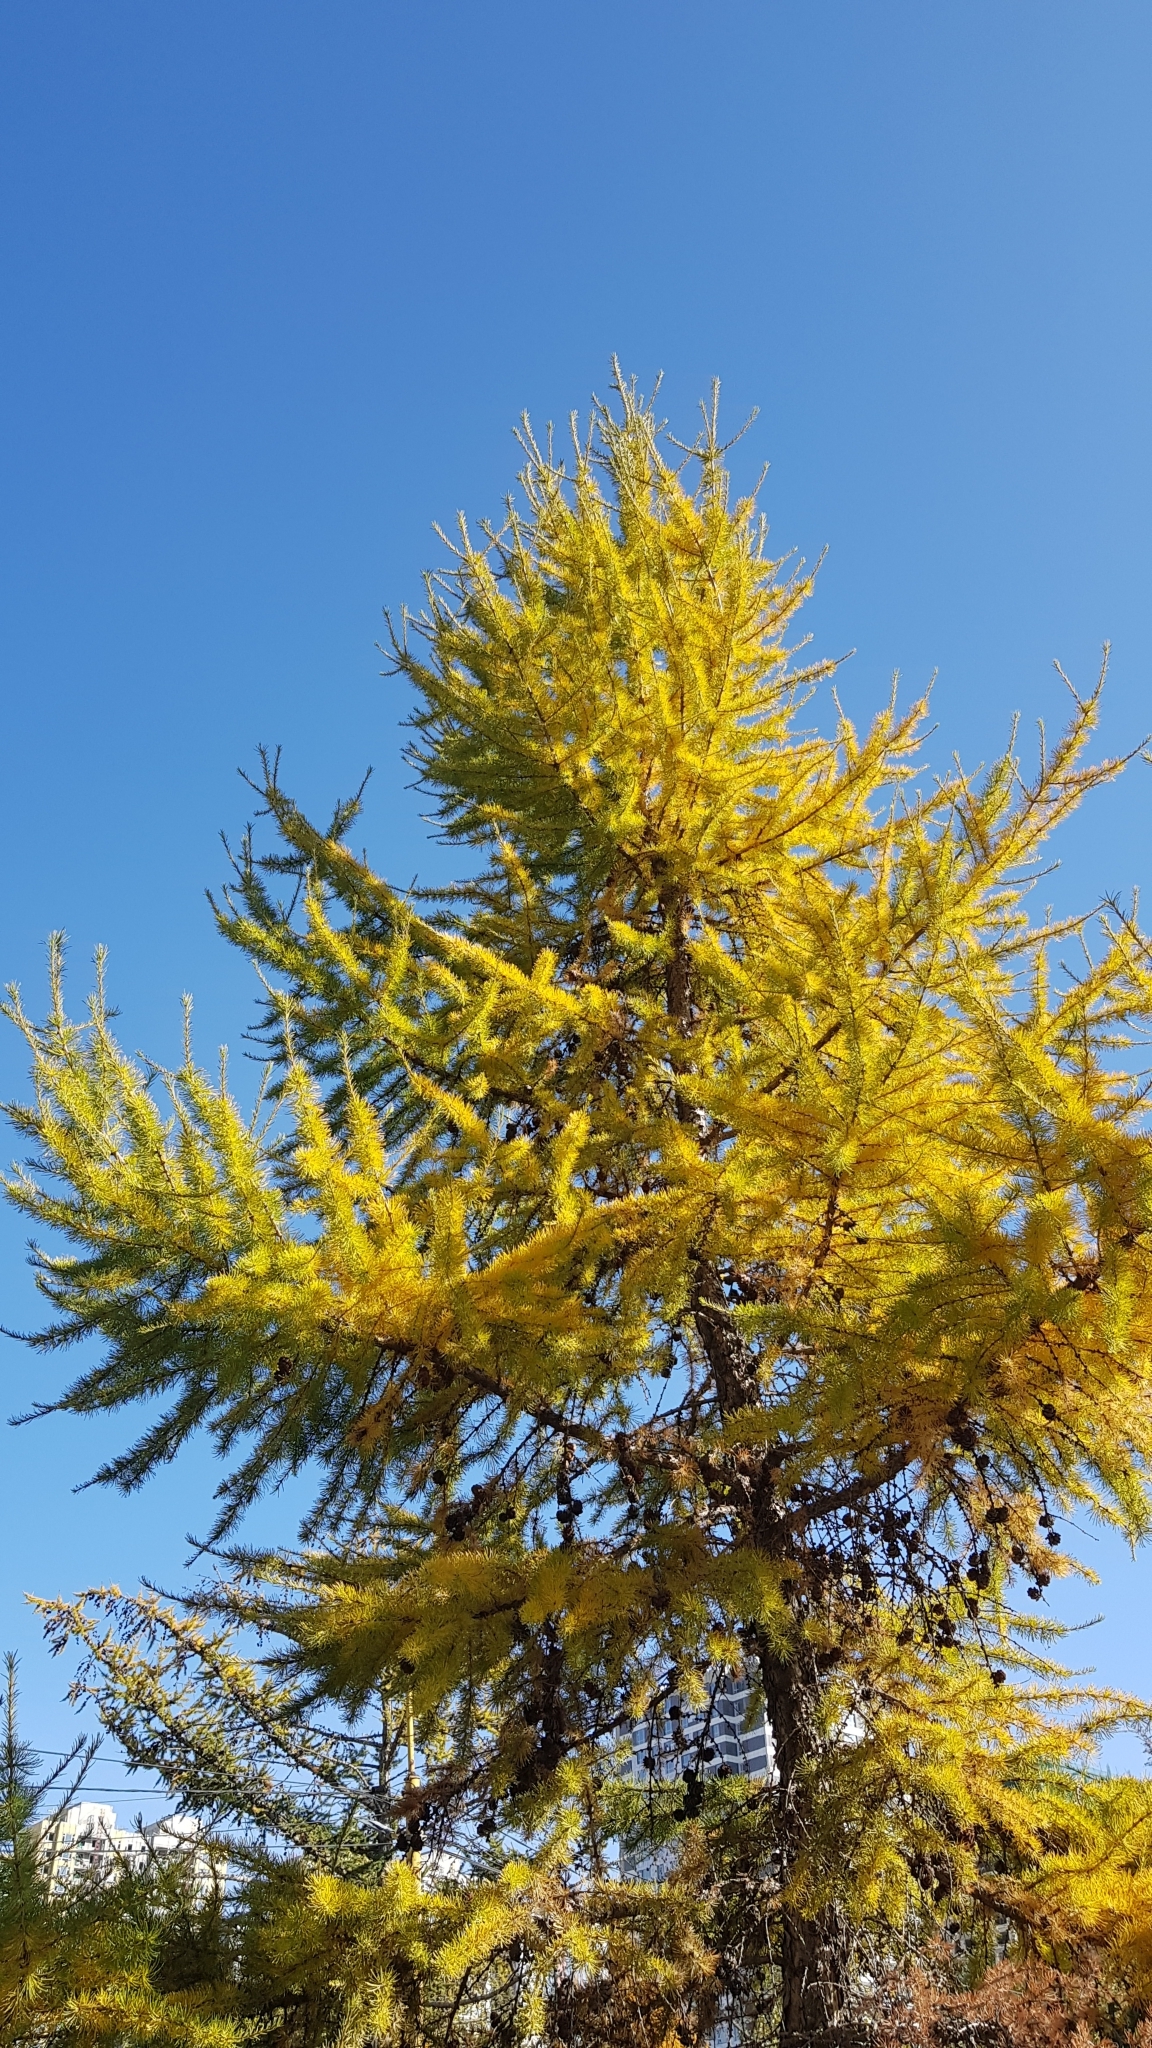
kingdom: Plantae
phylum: Tracheophyta
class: Pinopsida
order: Pinales
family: Pinaceae
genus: Larix
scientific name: Larix sibirica
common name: Siberian larch
